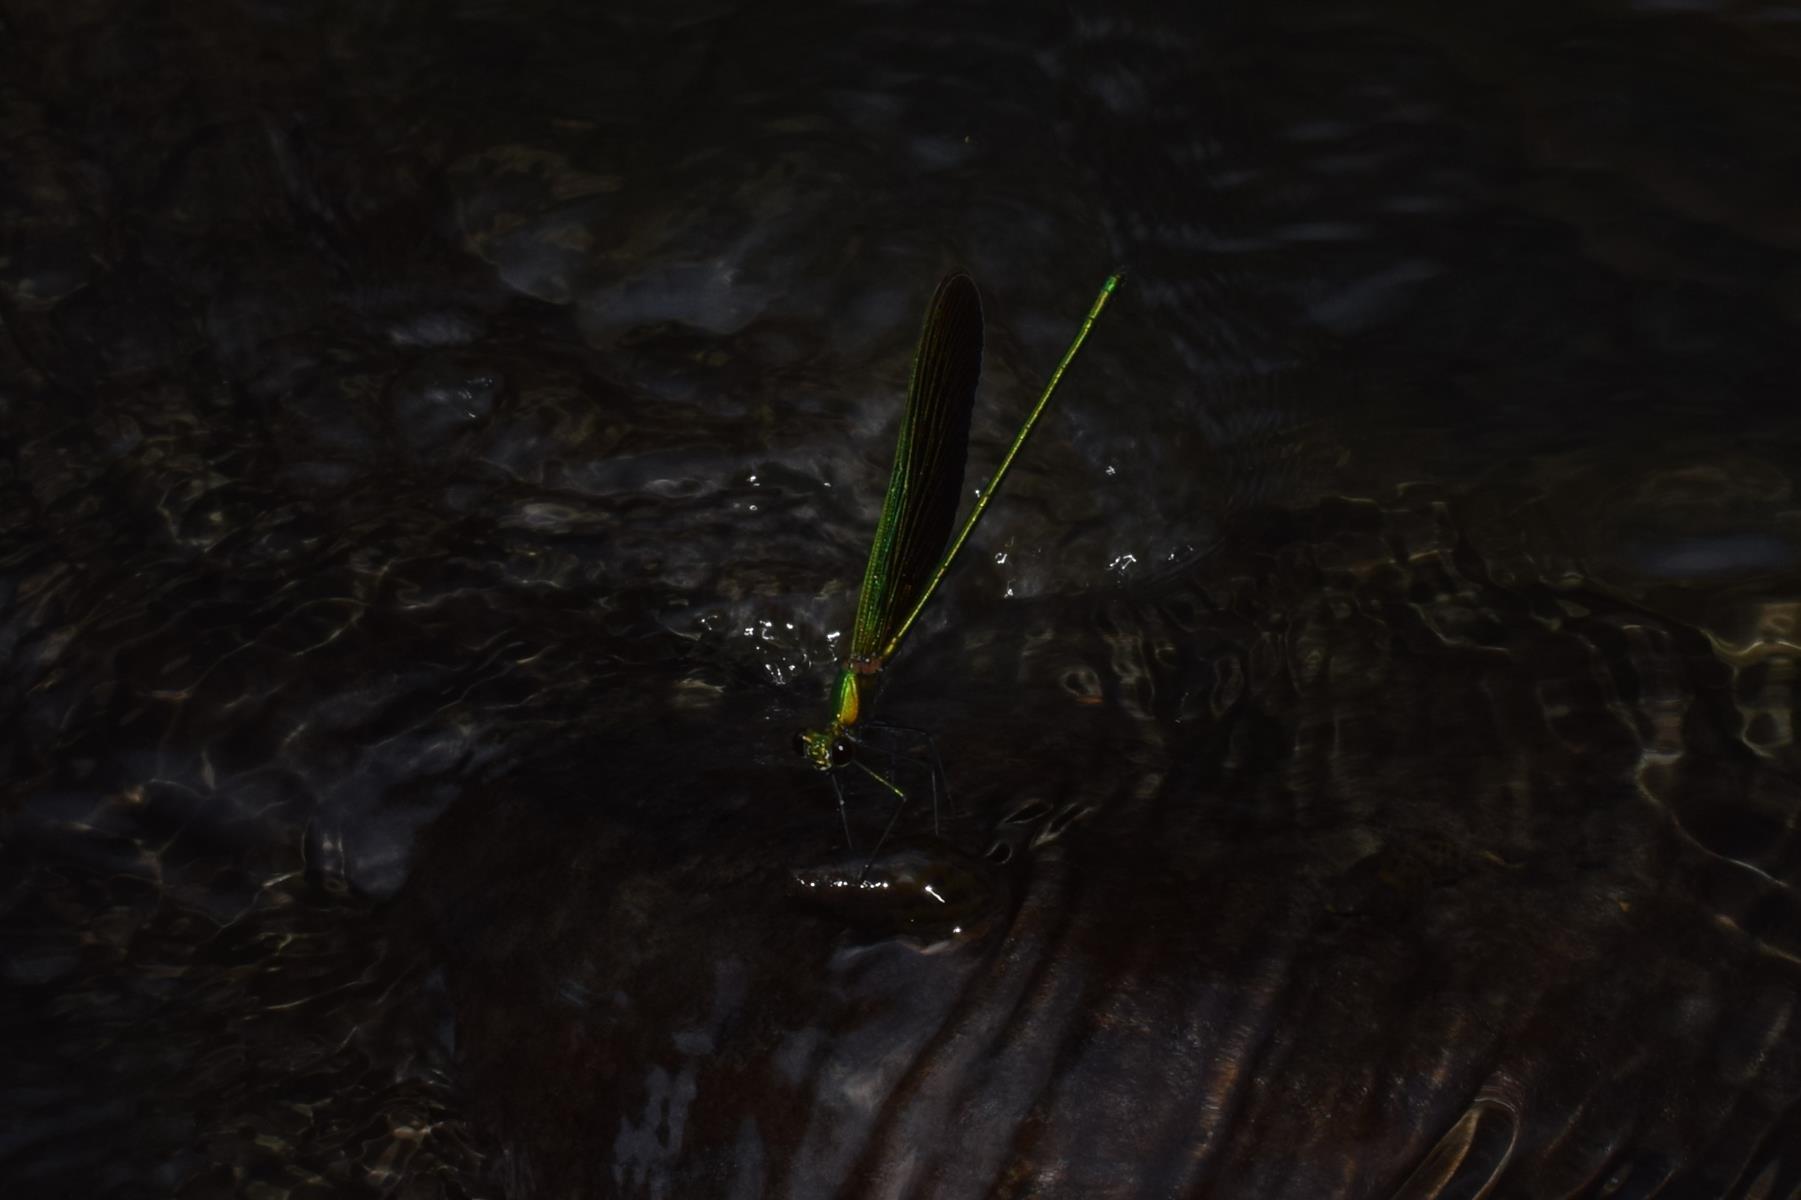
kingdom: Animalia
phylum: Arthropoda
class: Insecta
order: Odonata
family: Calopterygidae
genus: Neurobasis
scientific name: Neurobasis chinensis
